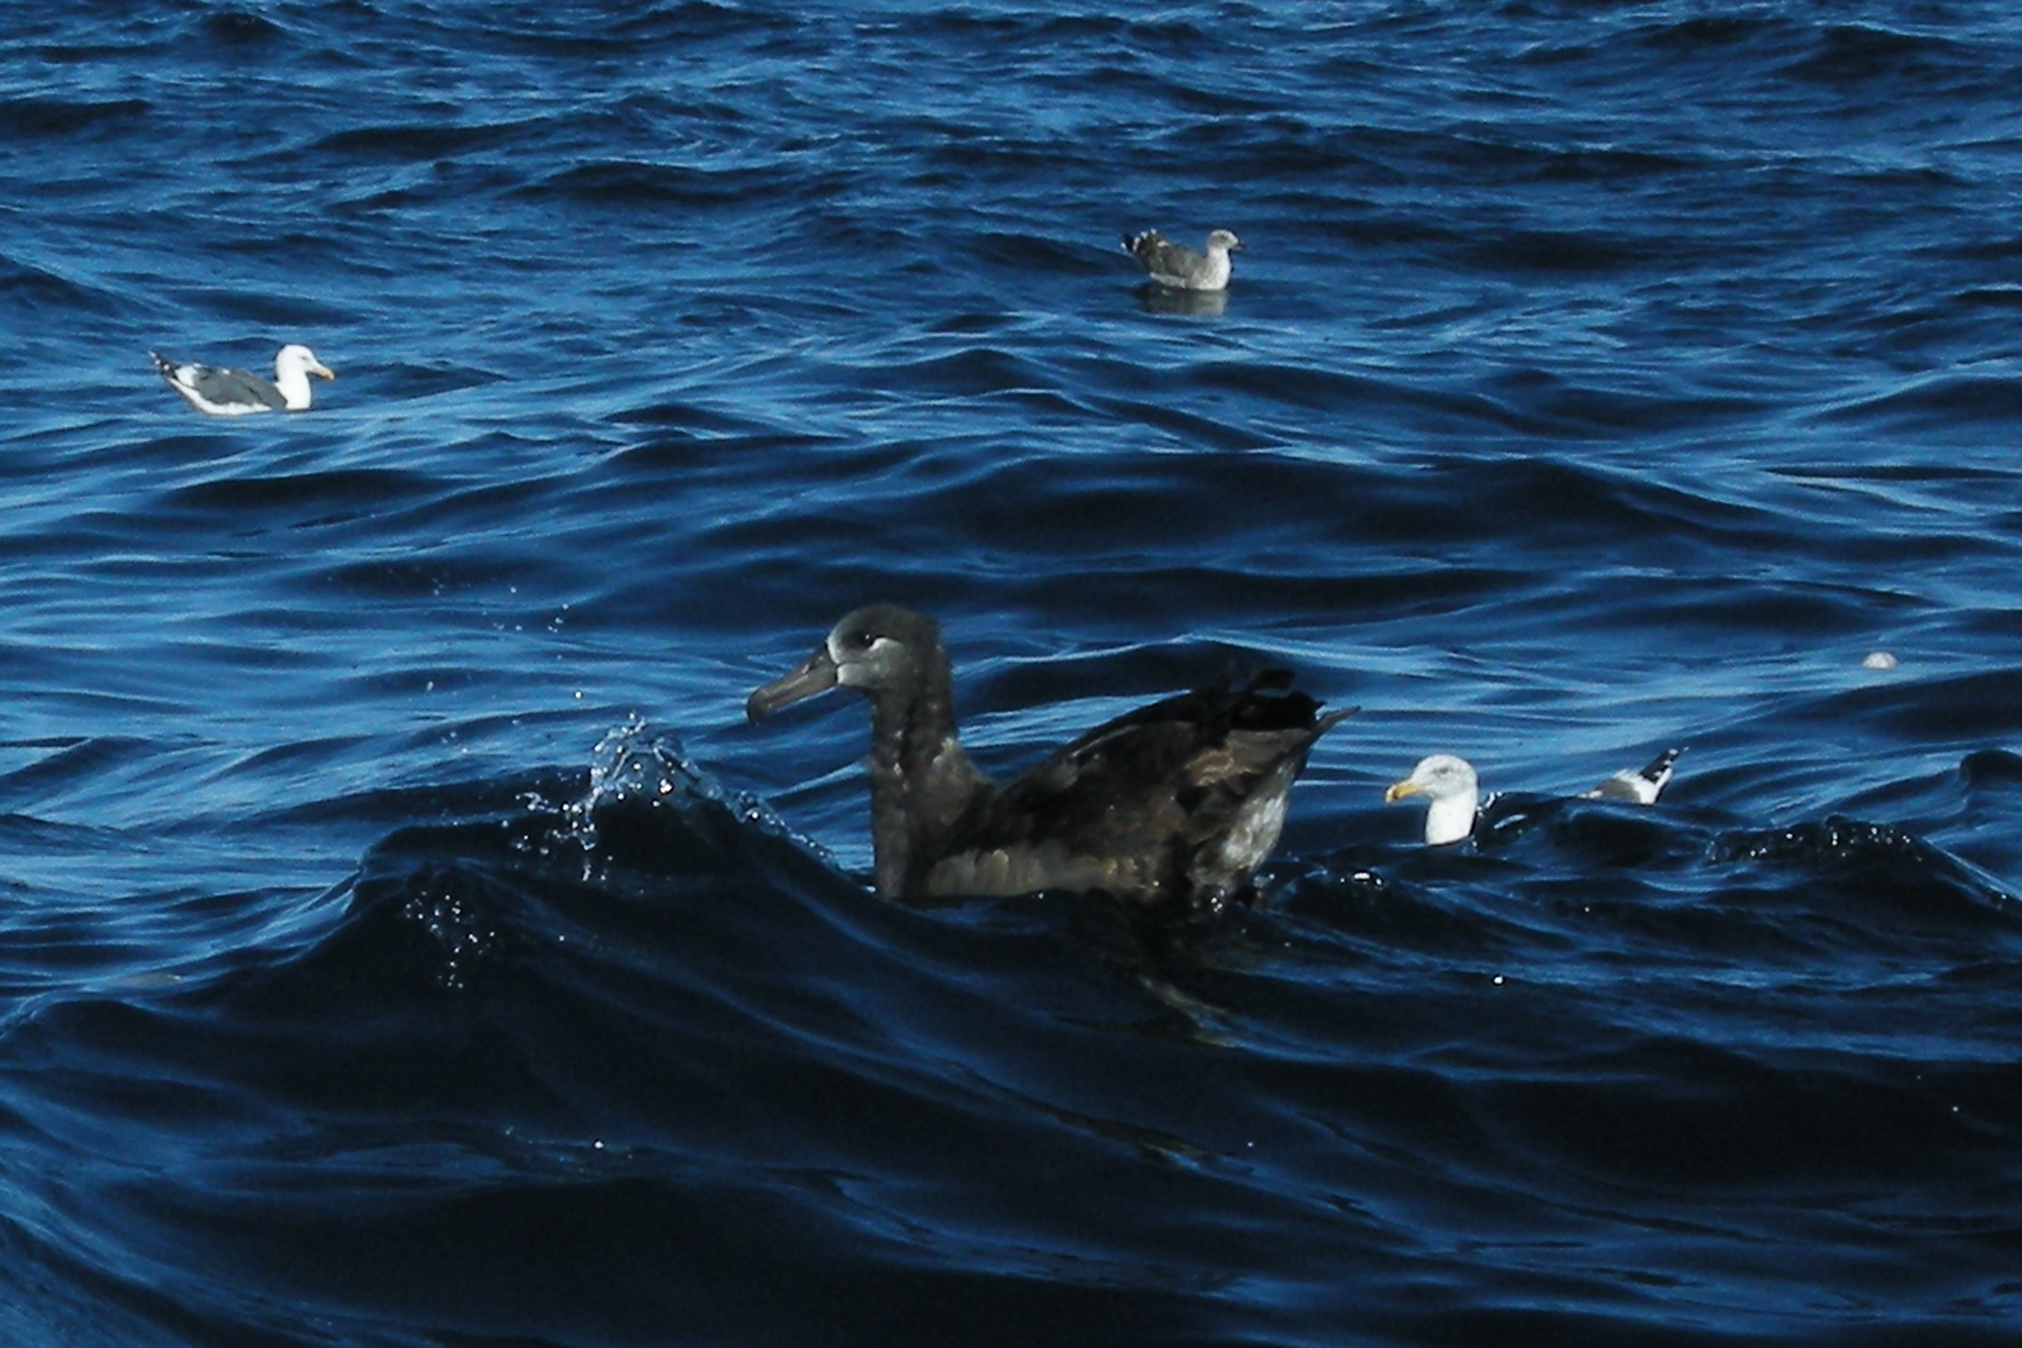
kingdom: Animalia
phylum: Chordata
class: Aves
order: Procellariiformes
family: Diomedeidae
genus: Phoebastria
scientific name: Phoebastria nigripes
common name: Black-footed albatross
